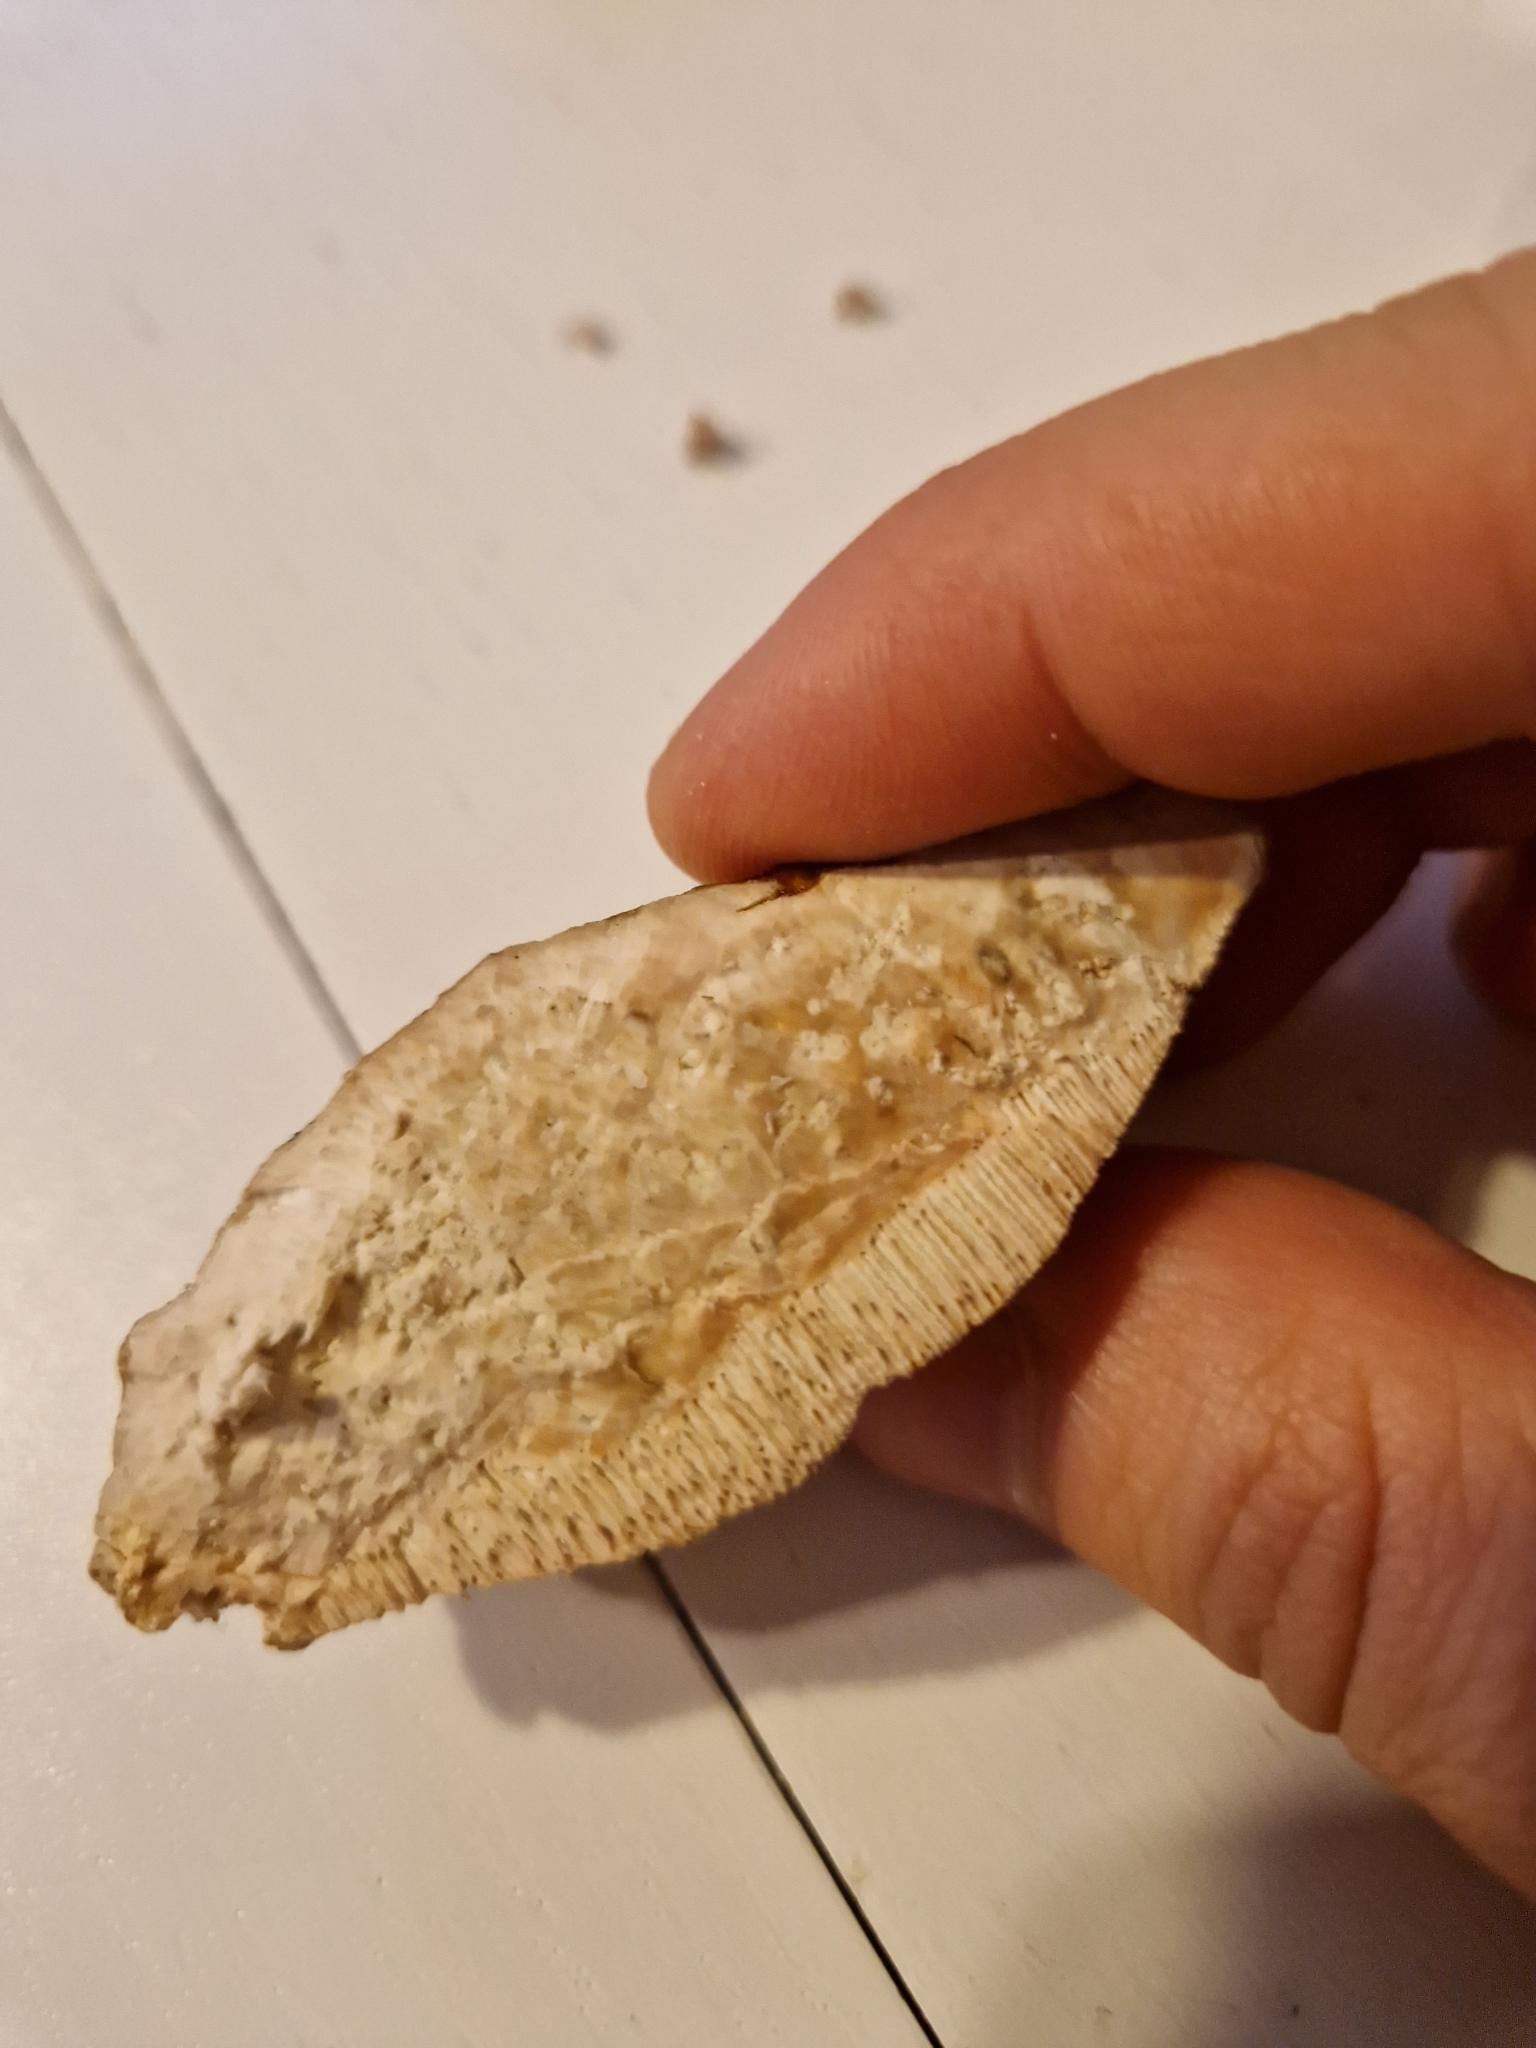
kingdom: Fungi
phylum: Basidiomycota
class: Agaricomycetes
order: Polyporales
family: Fomitopsidaceae
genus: Fomitopsis
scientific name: Fomitopsis pinicola
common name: Red-belted bracket
